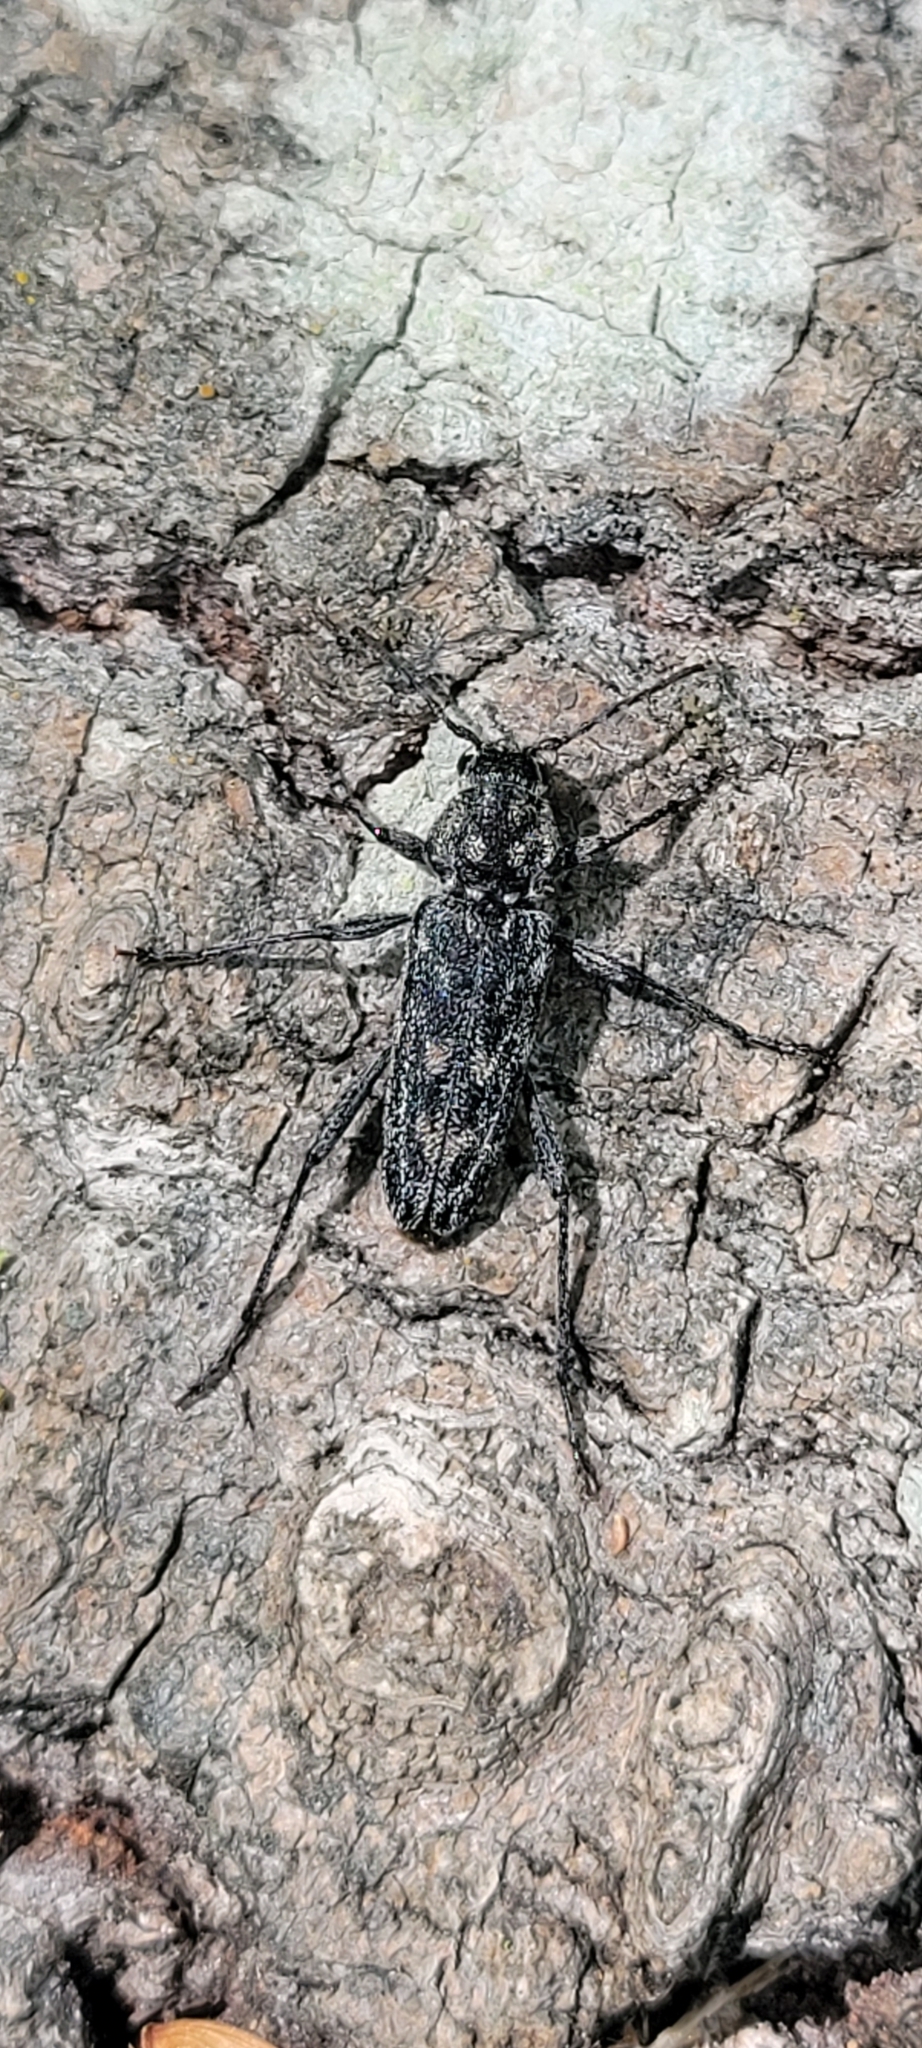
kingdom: Animalia
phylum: Arthropoda
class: Insecta
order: Coleoptera
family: Cerambycidae
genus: Xylotrechus
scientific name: Xylotrechus annosus
